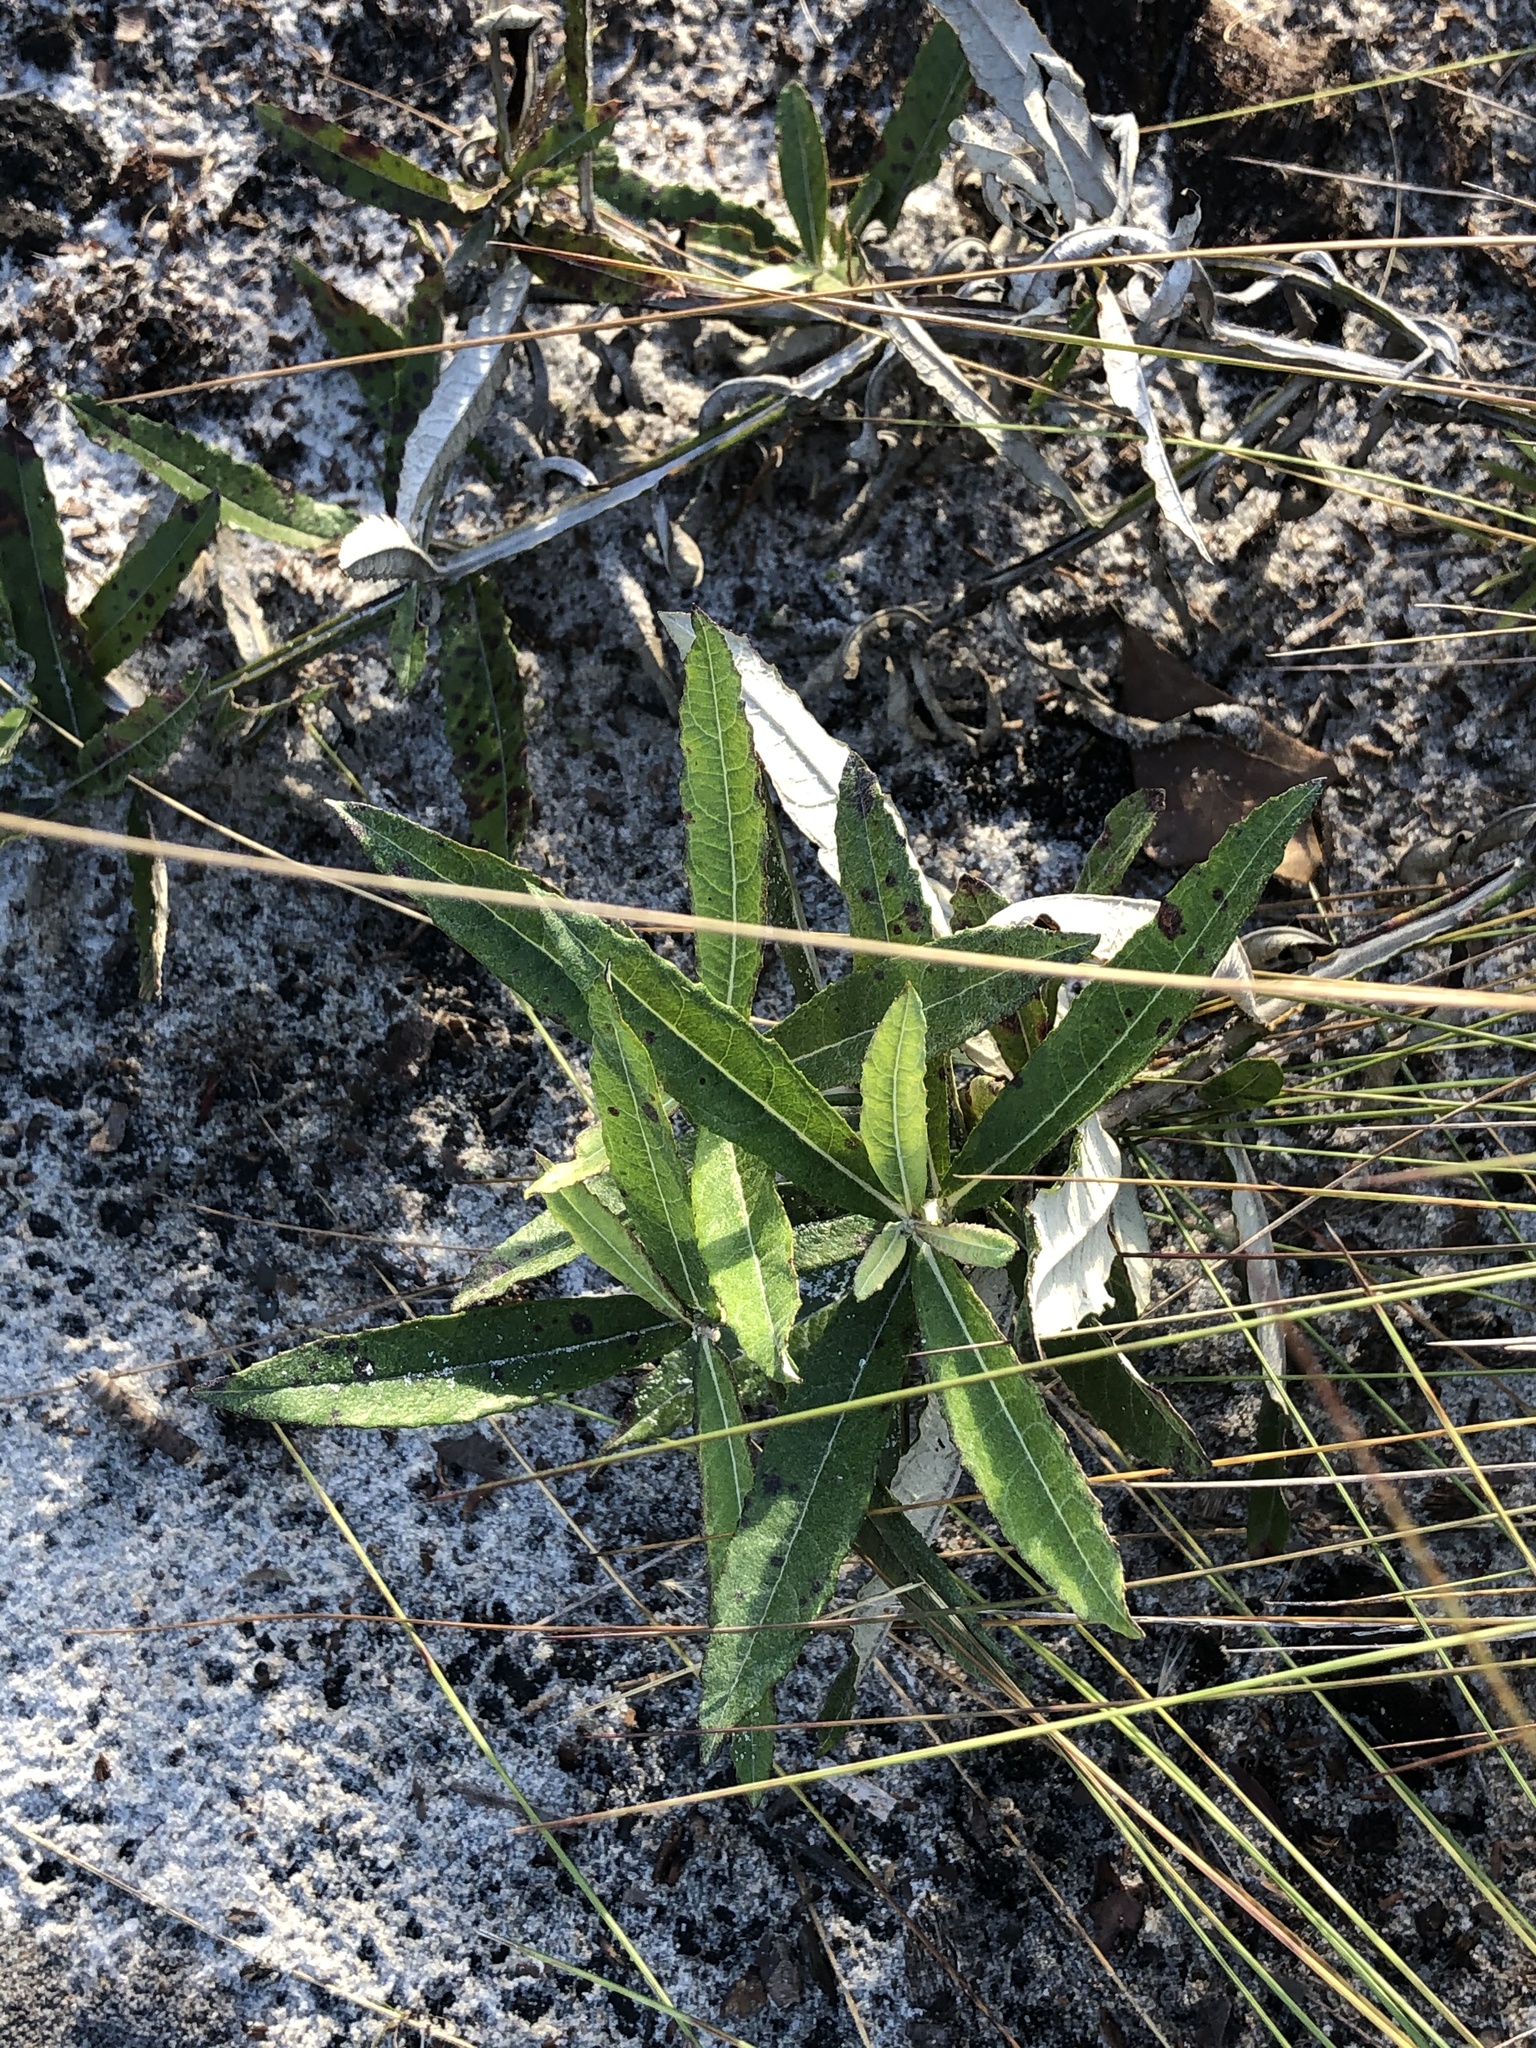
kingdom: Plantae
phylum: Tracheophyta
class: Magnoliopsida
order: Asterales
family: Asteraceae
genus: Pterocaulon
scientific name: Pterocaulon pycnostachyum
